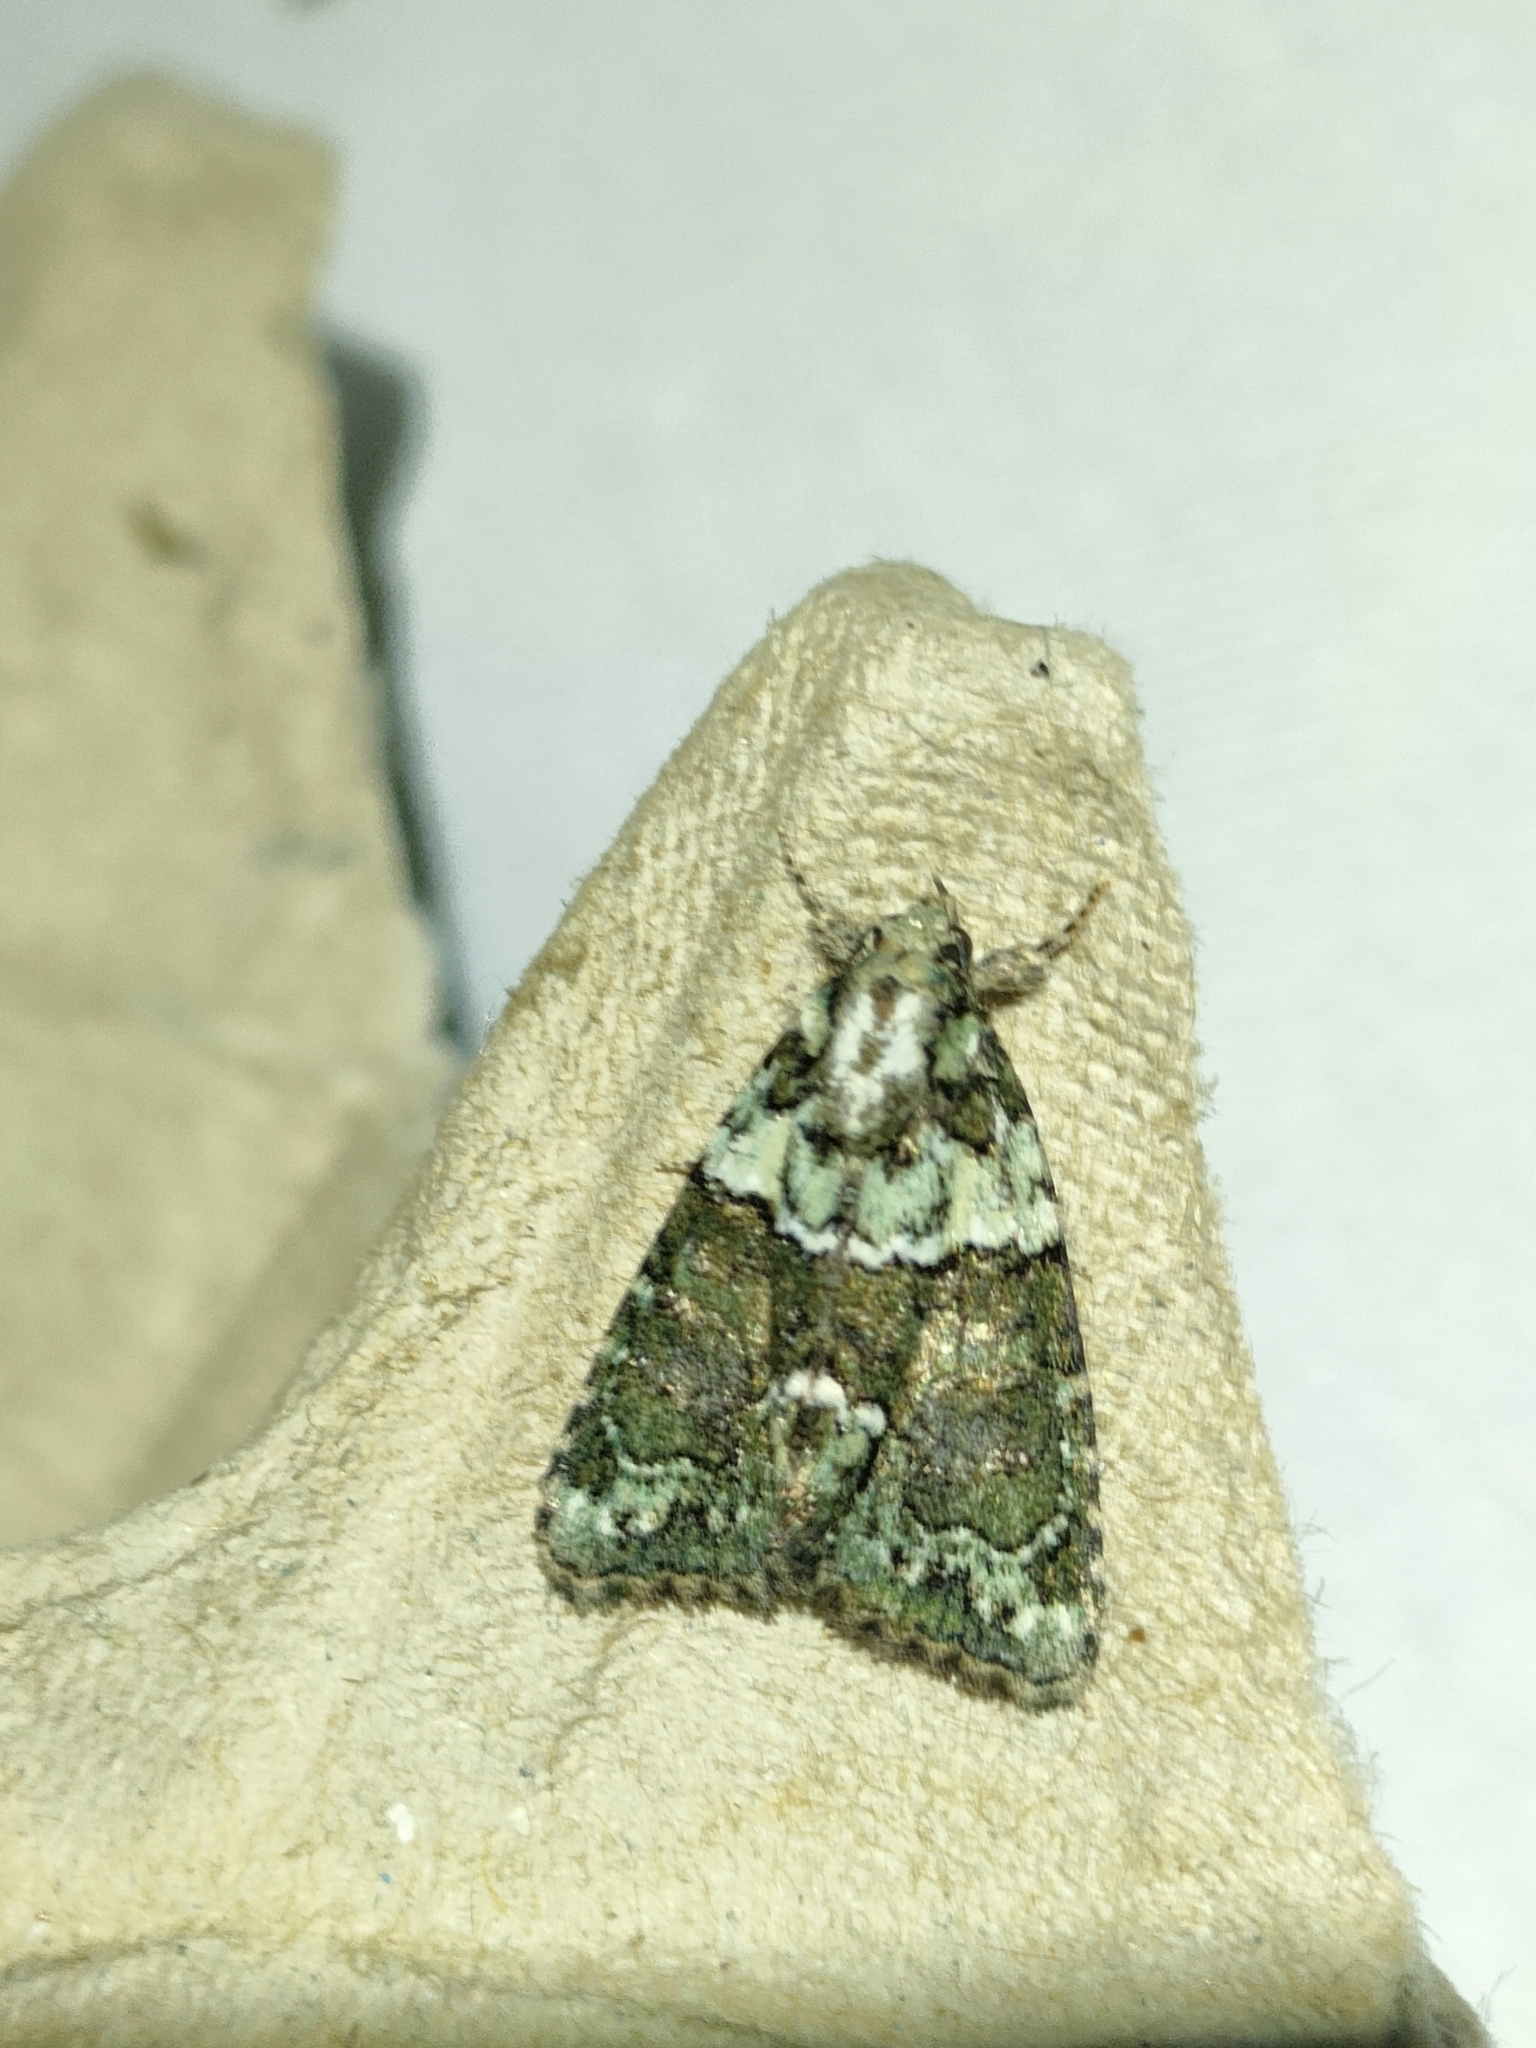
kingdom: Animalia
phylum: Arthropoda
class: Insecta
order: Lepidoptera
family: Noctuidae
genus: Cryphia
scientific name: Cryphia algae
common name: Tree-lichen beauty
